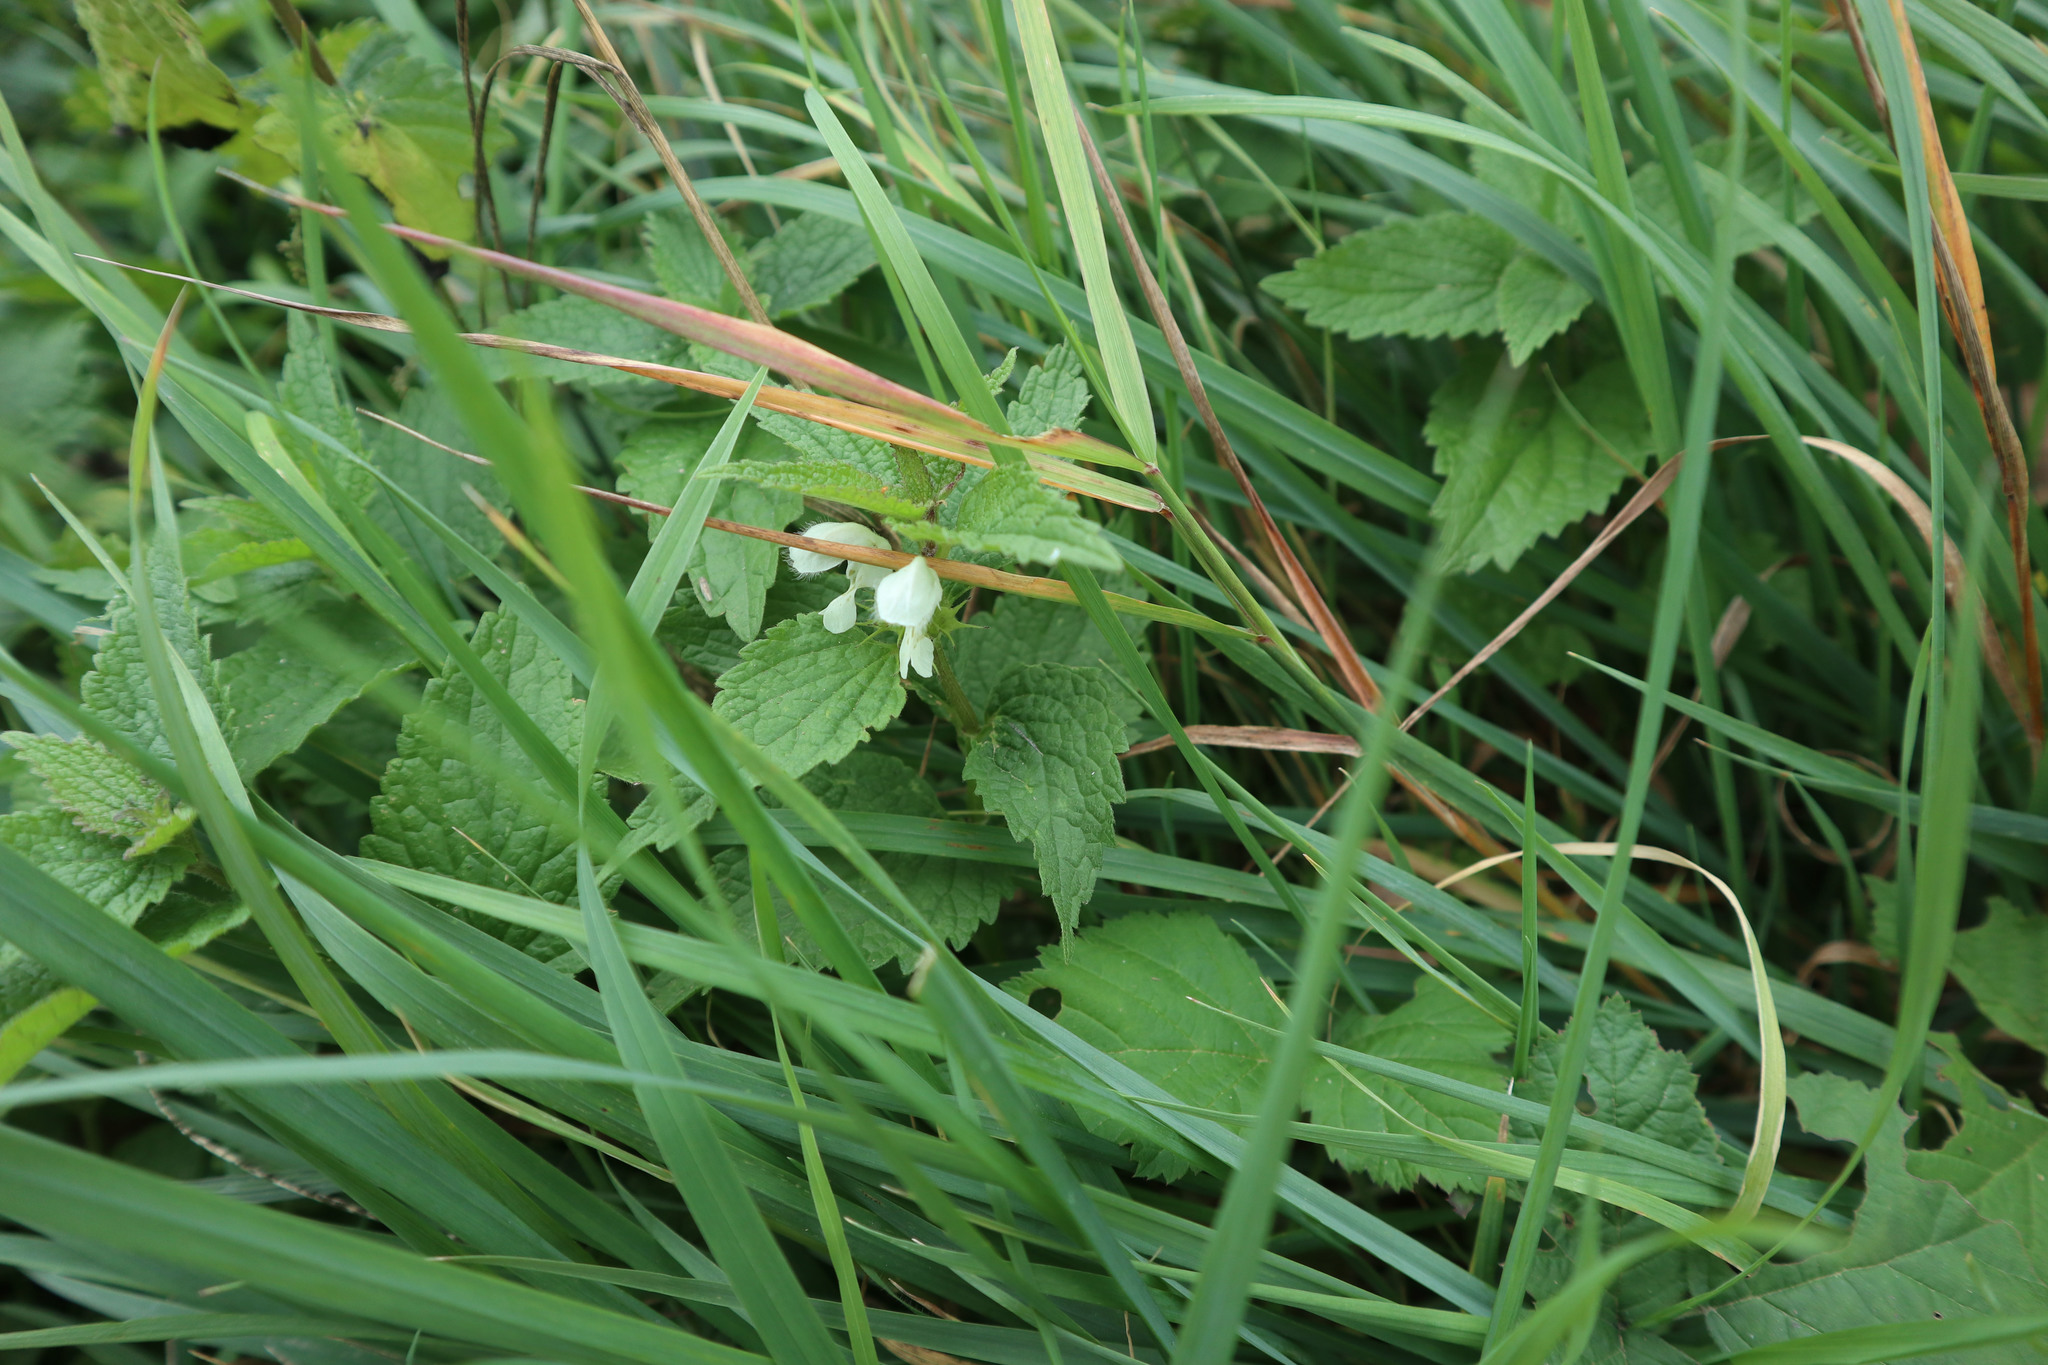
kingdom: Plantae
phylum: Tracheophyta
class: Magnoliopsida
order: Lamiales
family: Lamiaceae
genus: Lamium
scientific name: Lamium album
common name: White dead-nettle
